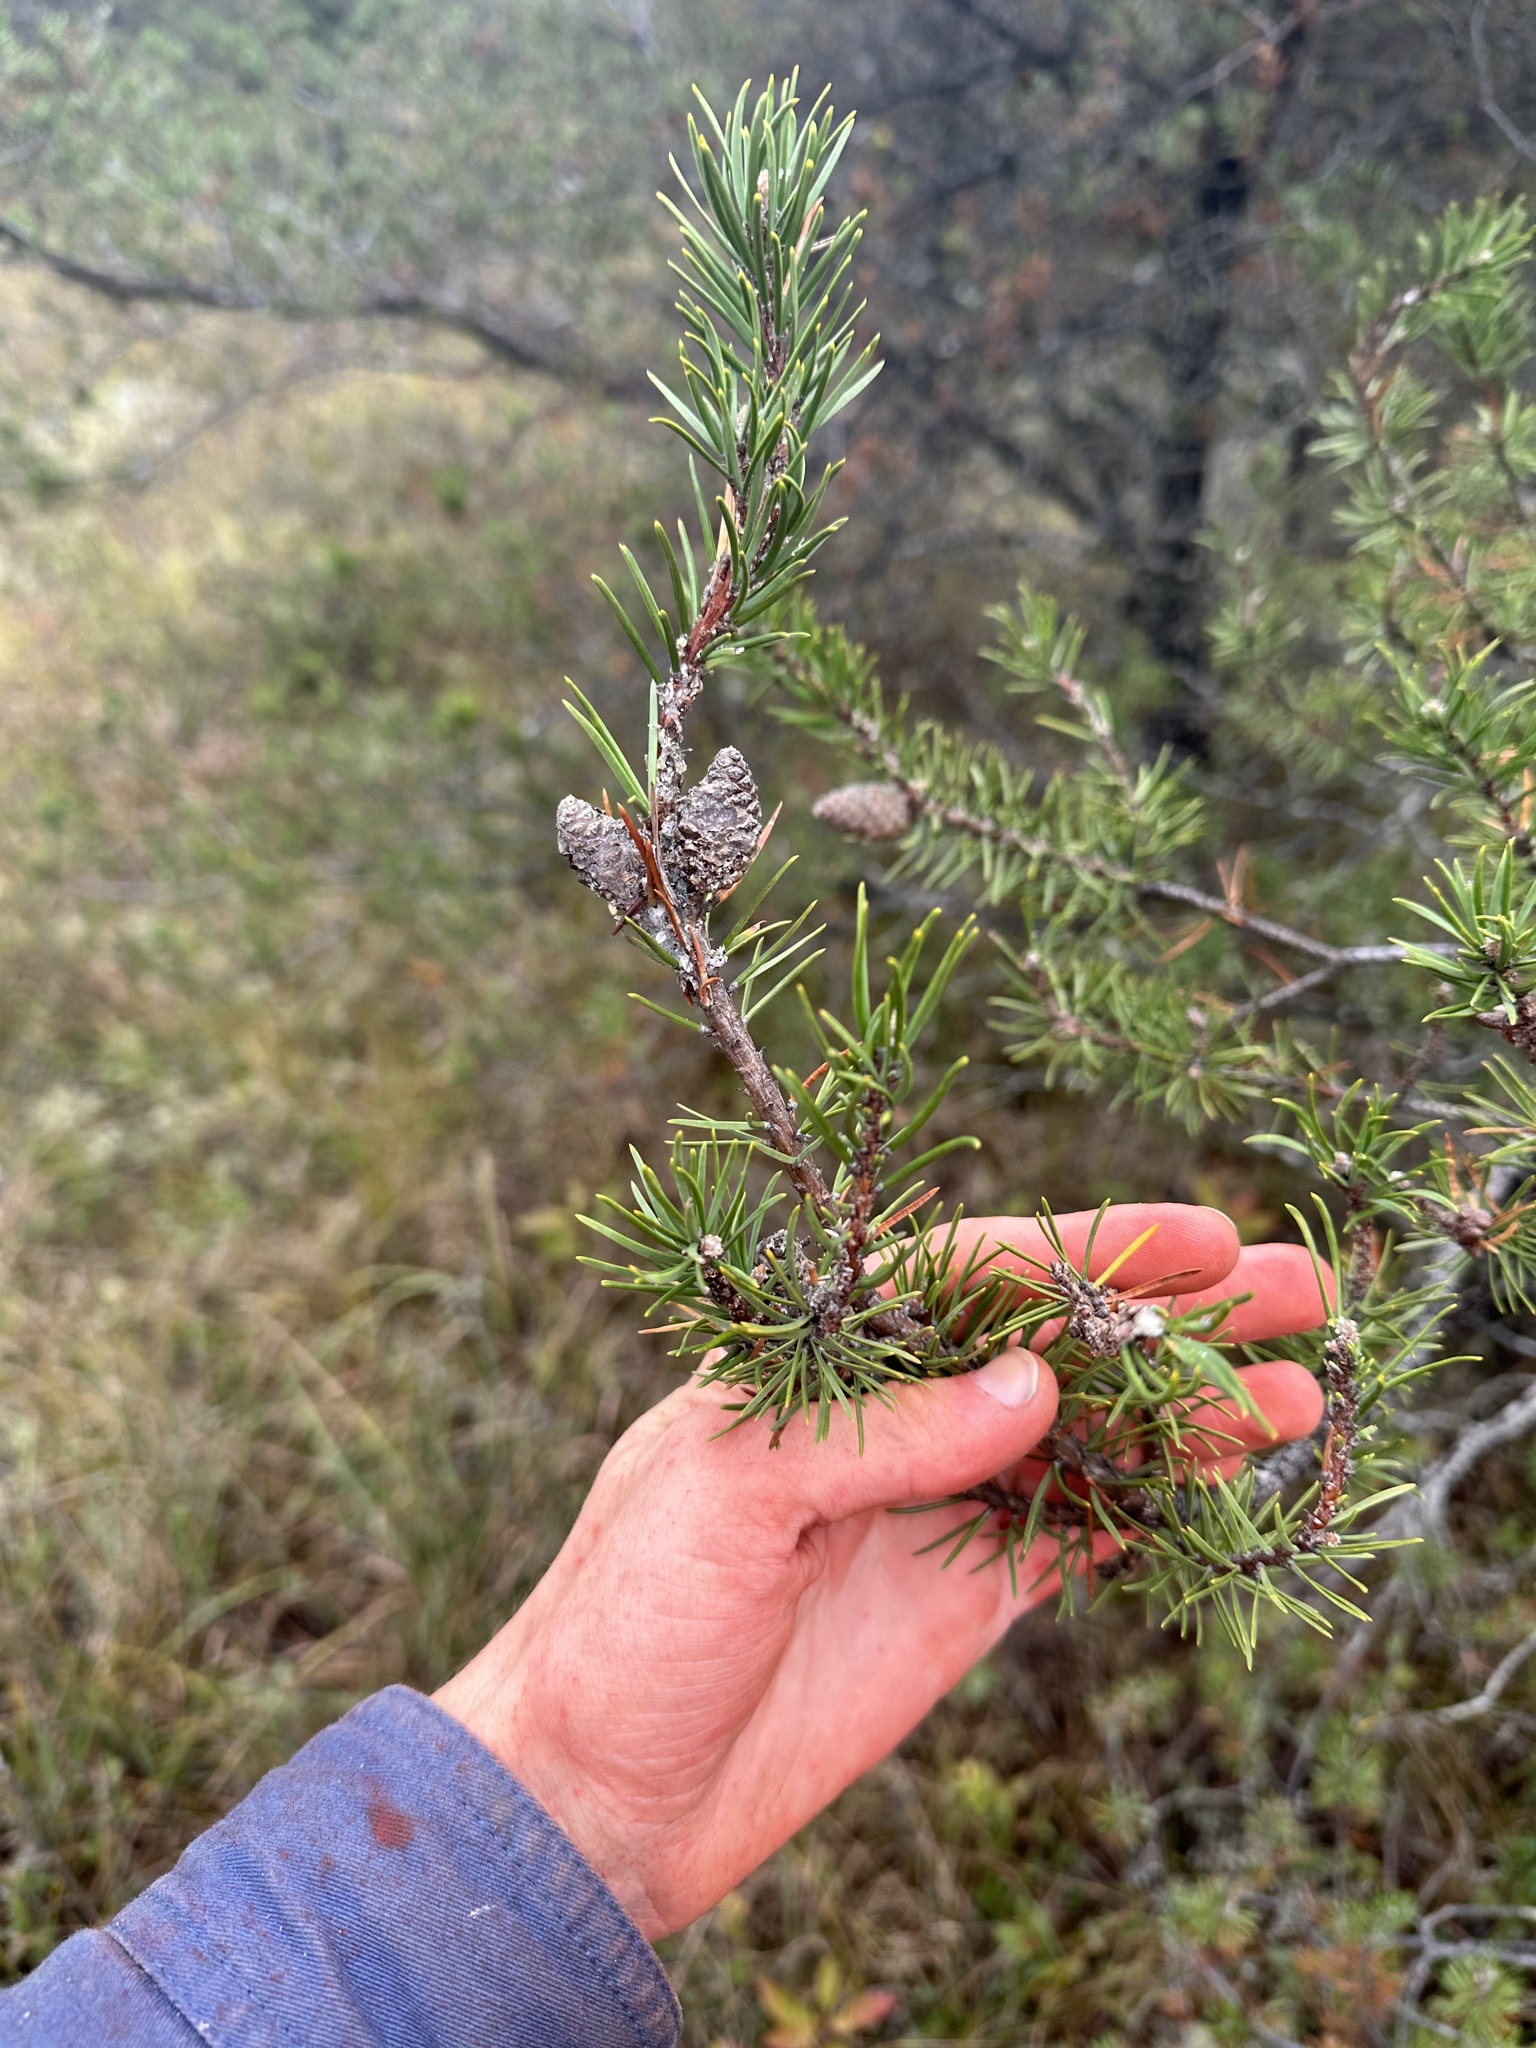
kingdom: Plantae
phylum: Tracheophyta
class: Pinopsida
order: Pinales
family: Pinaceae
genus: Pinus
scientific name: Pinus banksiana
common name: Jack pine
